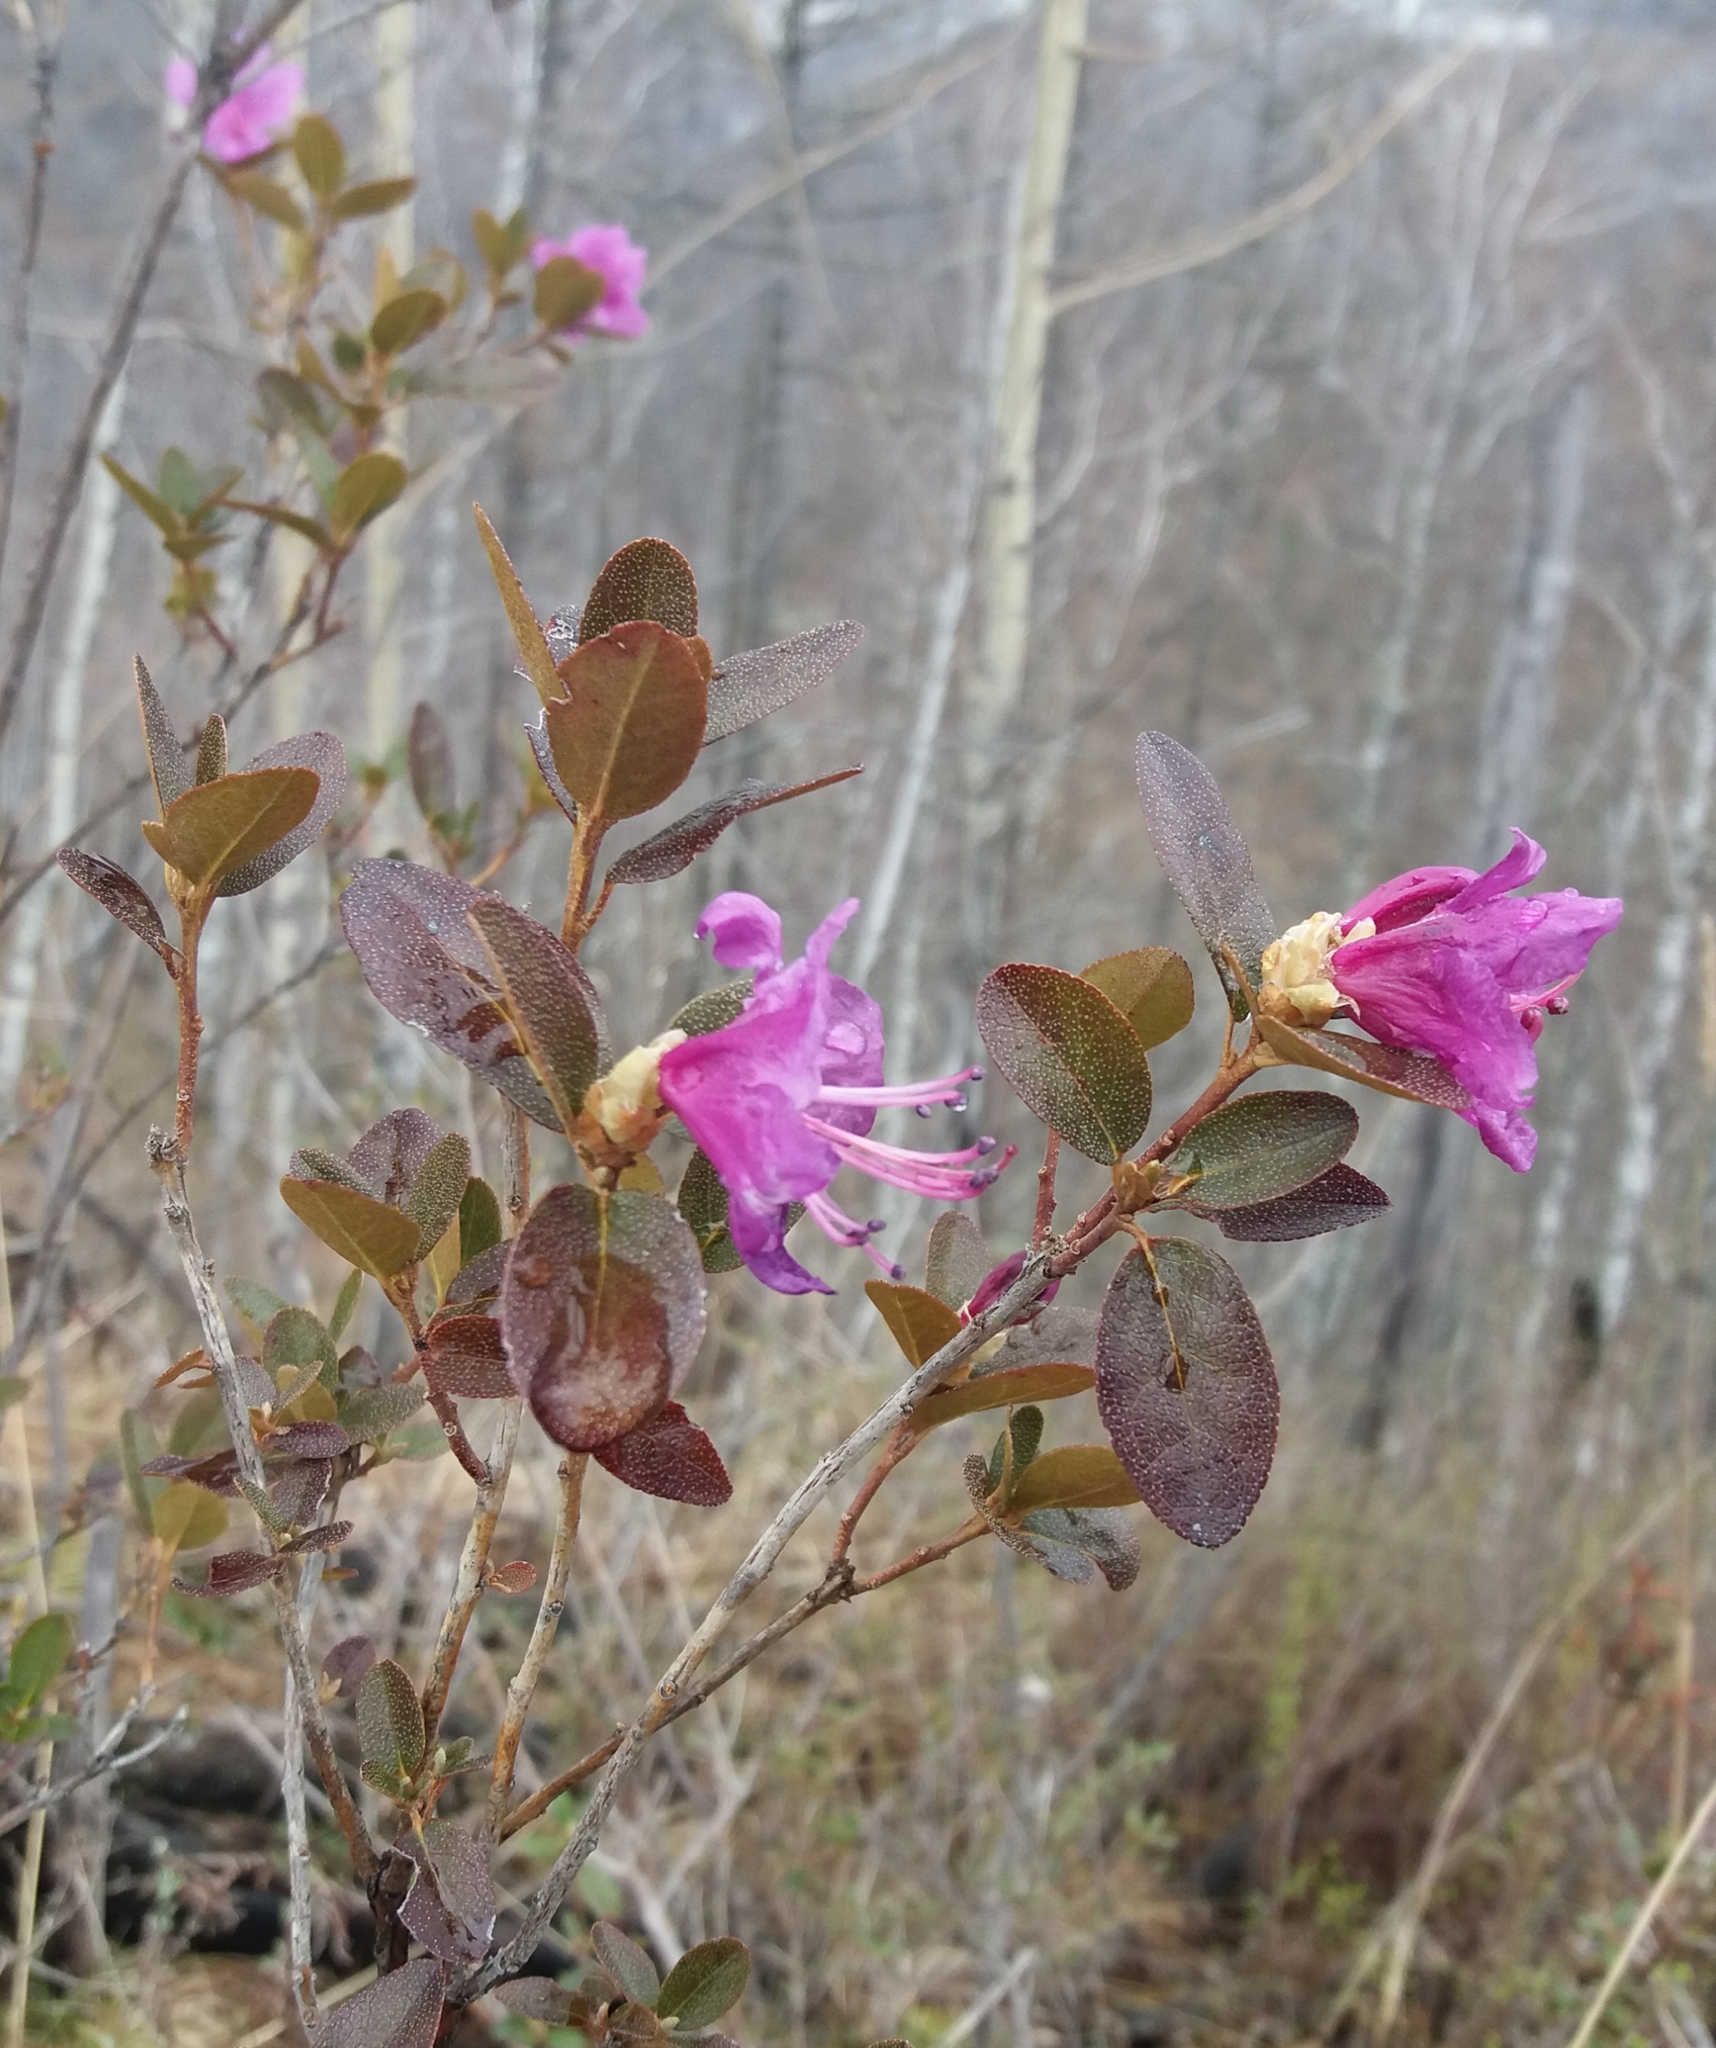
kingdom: Plantae
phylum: Tracheophyta
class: Magnoliopsida
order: Ericales
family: Ericaceae
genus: Rhododendron
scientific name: Rhododendron dauricum
